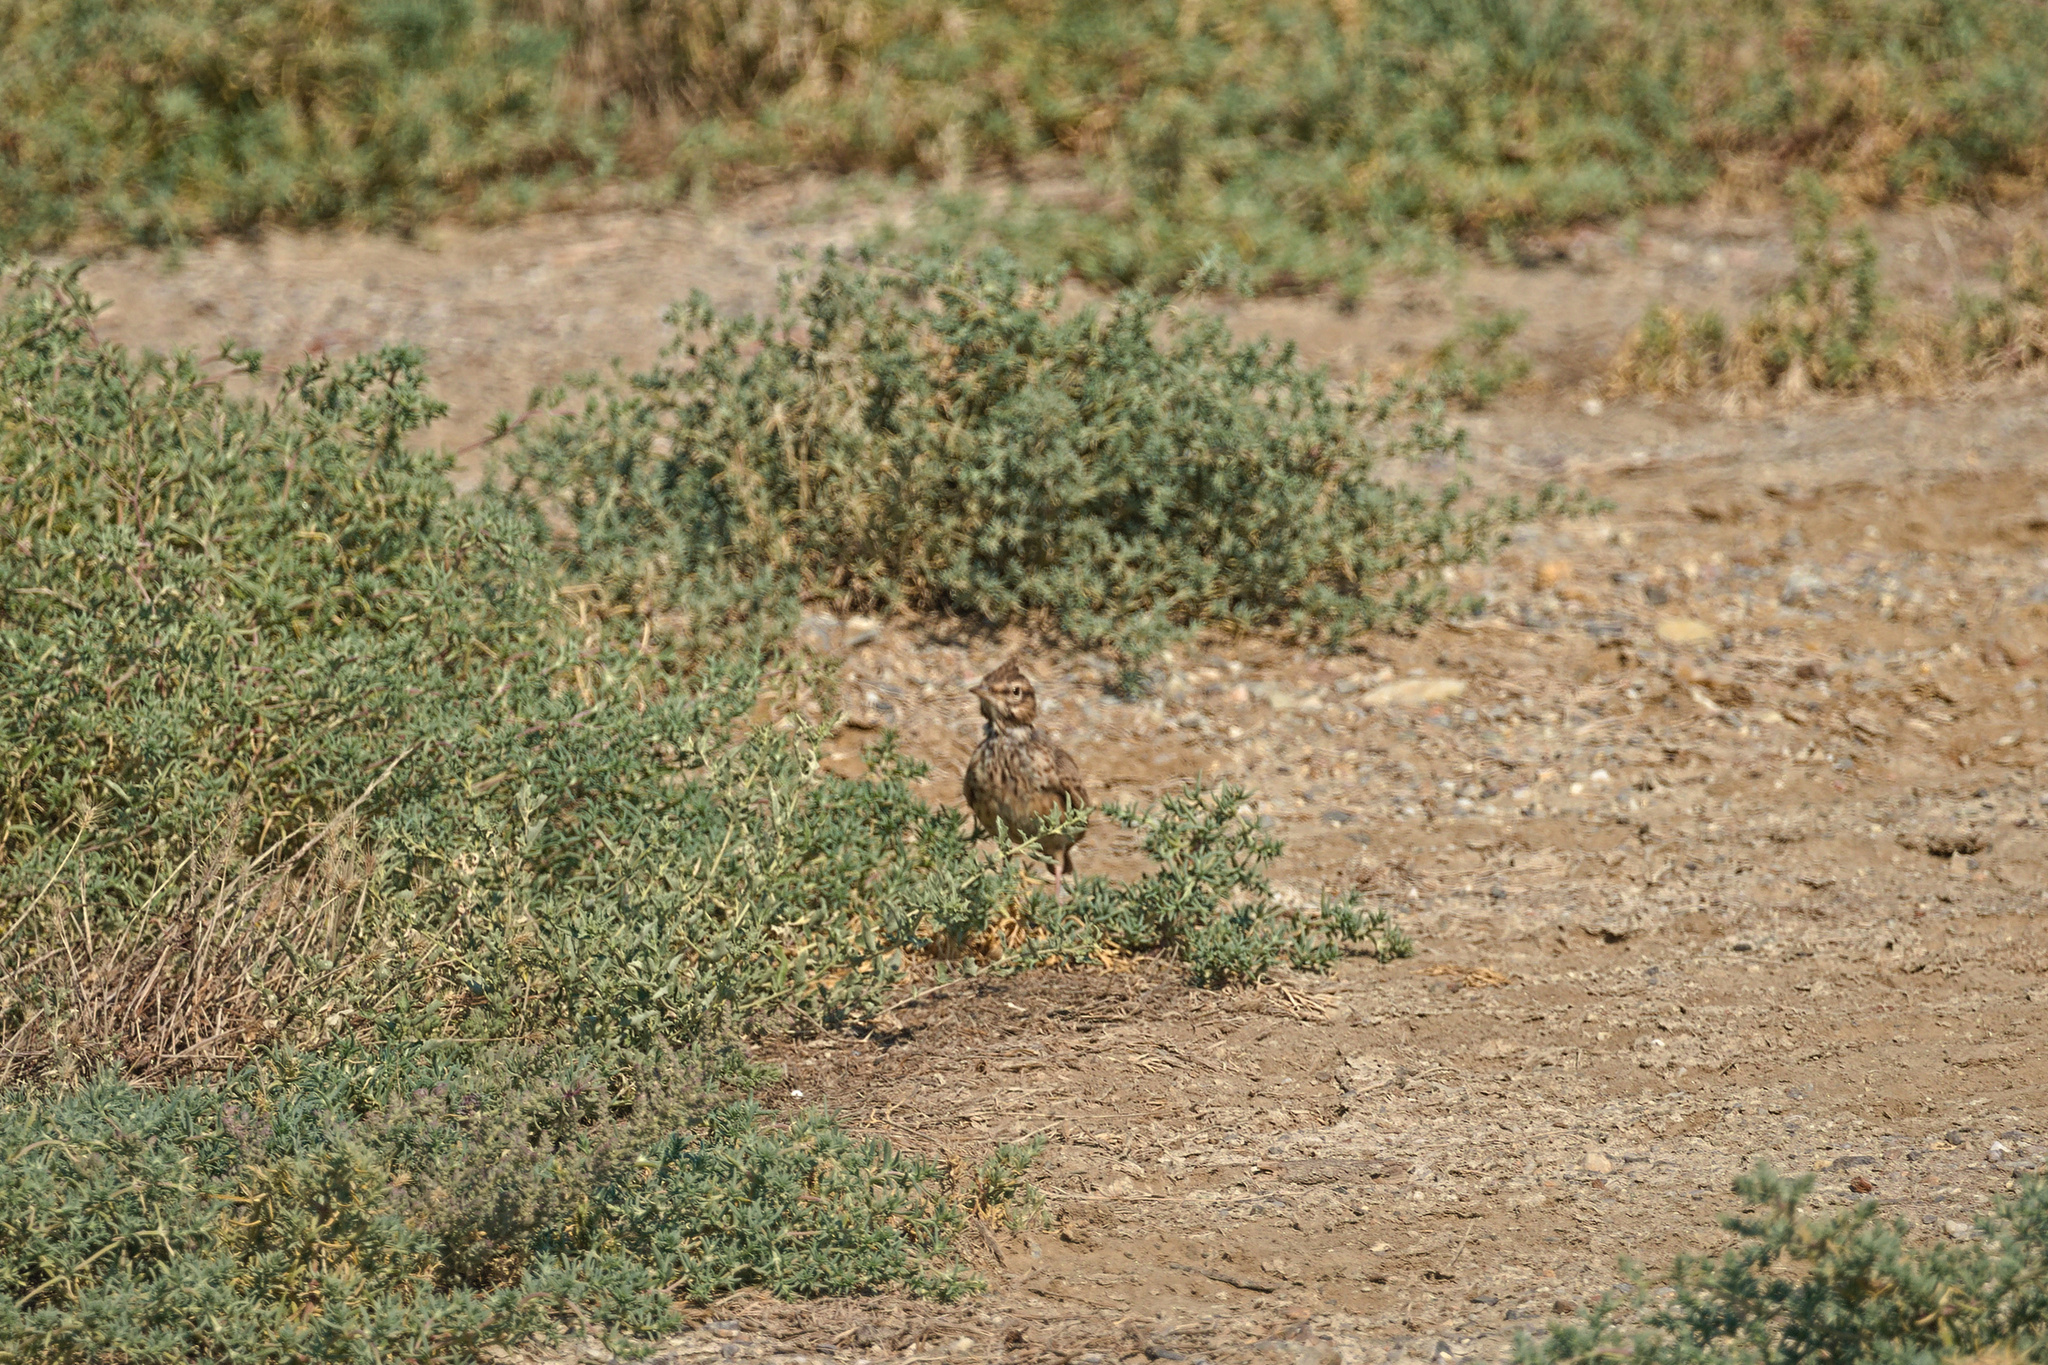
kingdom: Animalia
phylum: Chordata
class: Aves
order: Passeriformes
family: Alaudidae
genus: Galerida
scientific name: Galerida cristata
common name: Crested lark
